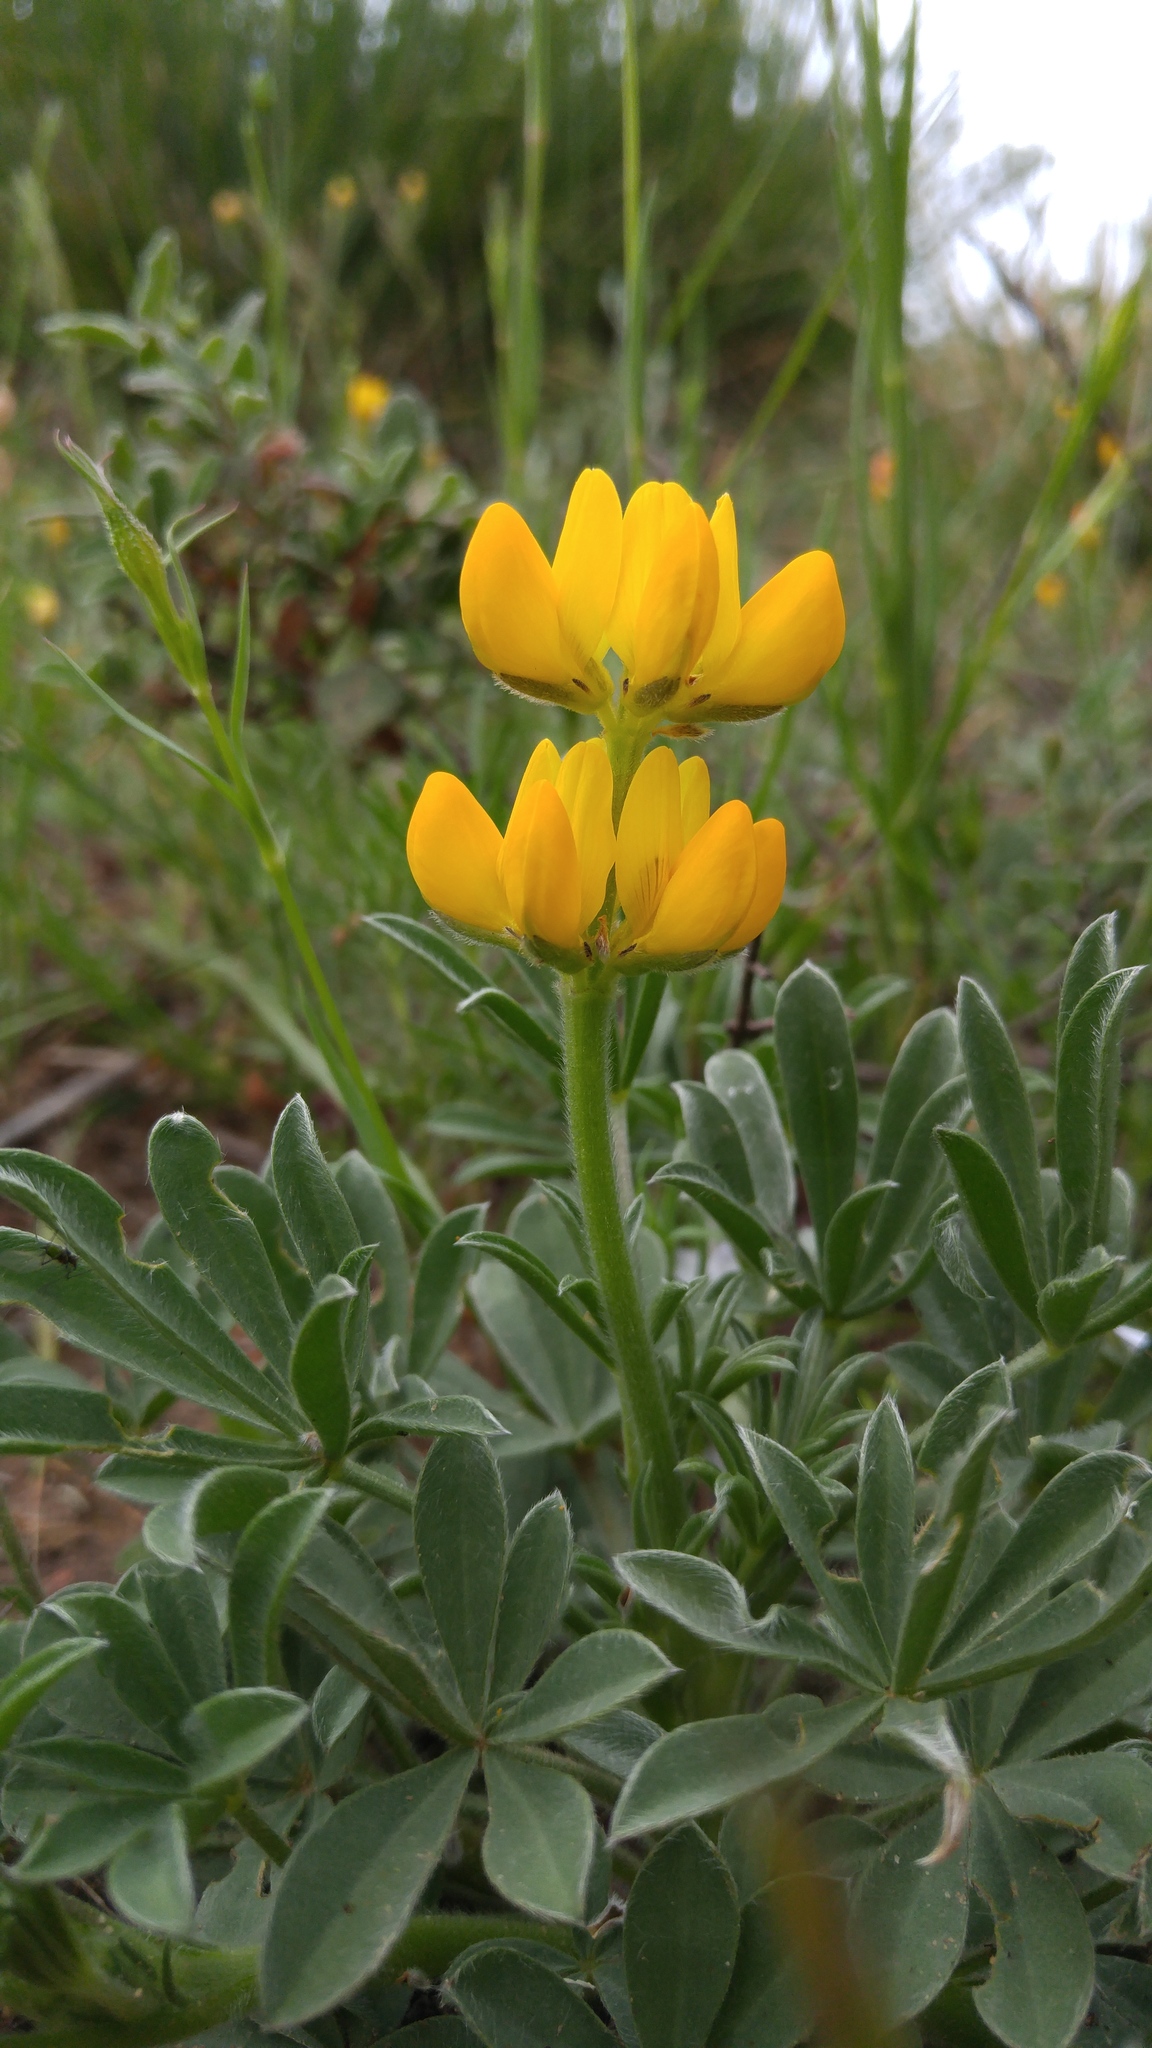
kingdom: Plantae
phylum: Tracheophyta
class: Magnoliopsida
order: Fabales
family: Fabaceae
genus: Lupinus
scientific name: Lupinus luteus
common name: European yellow lupine
